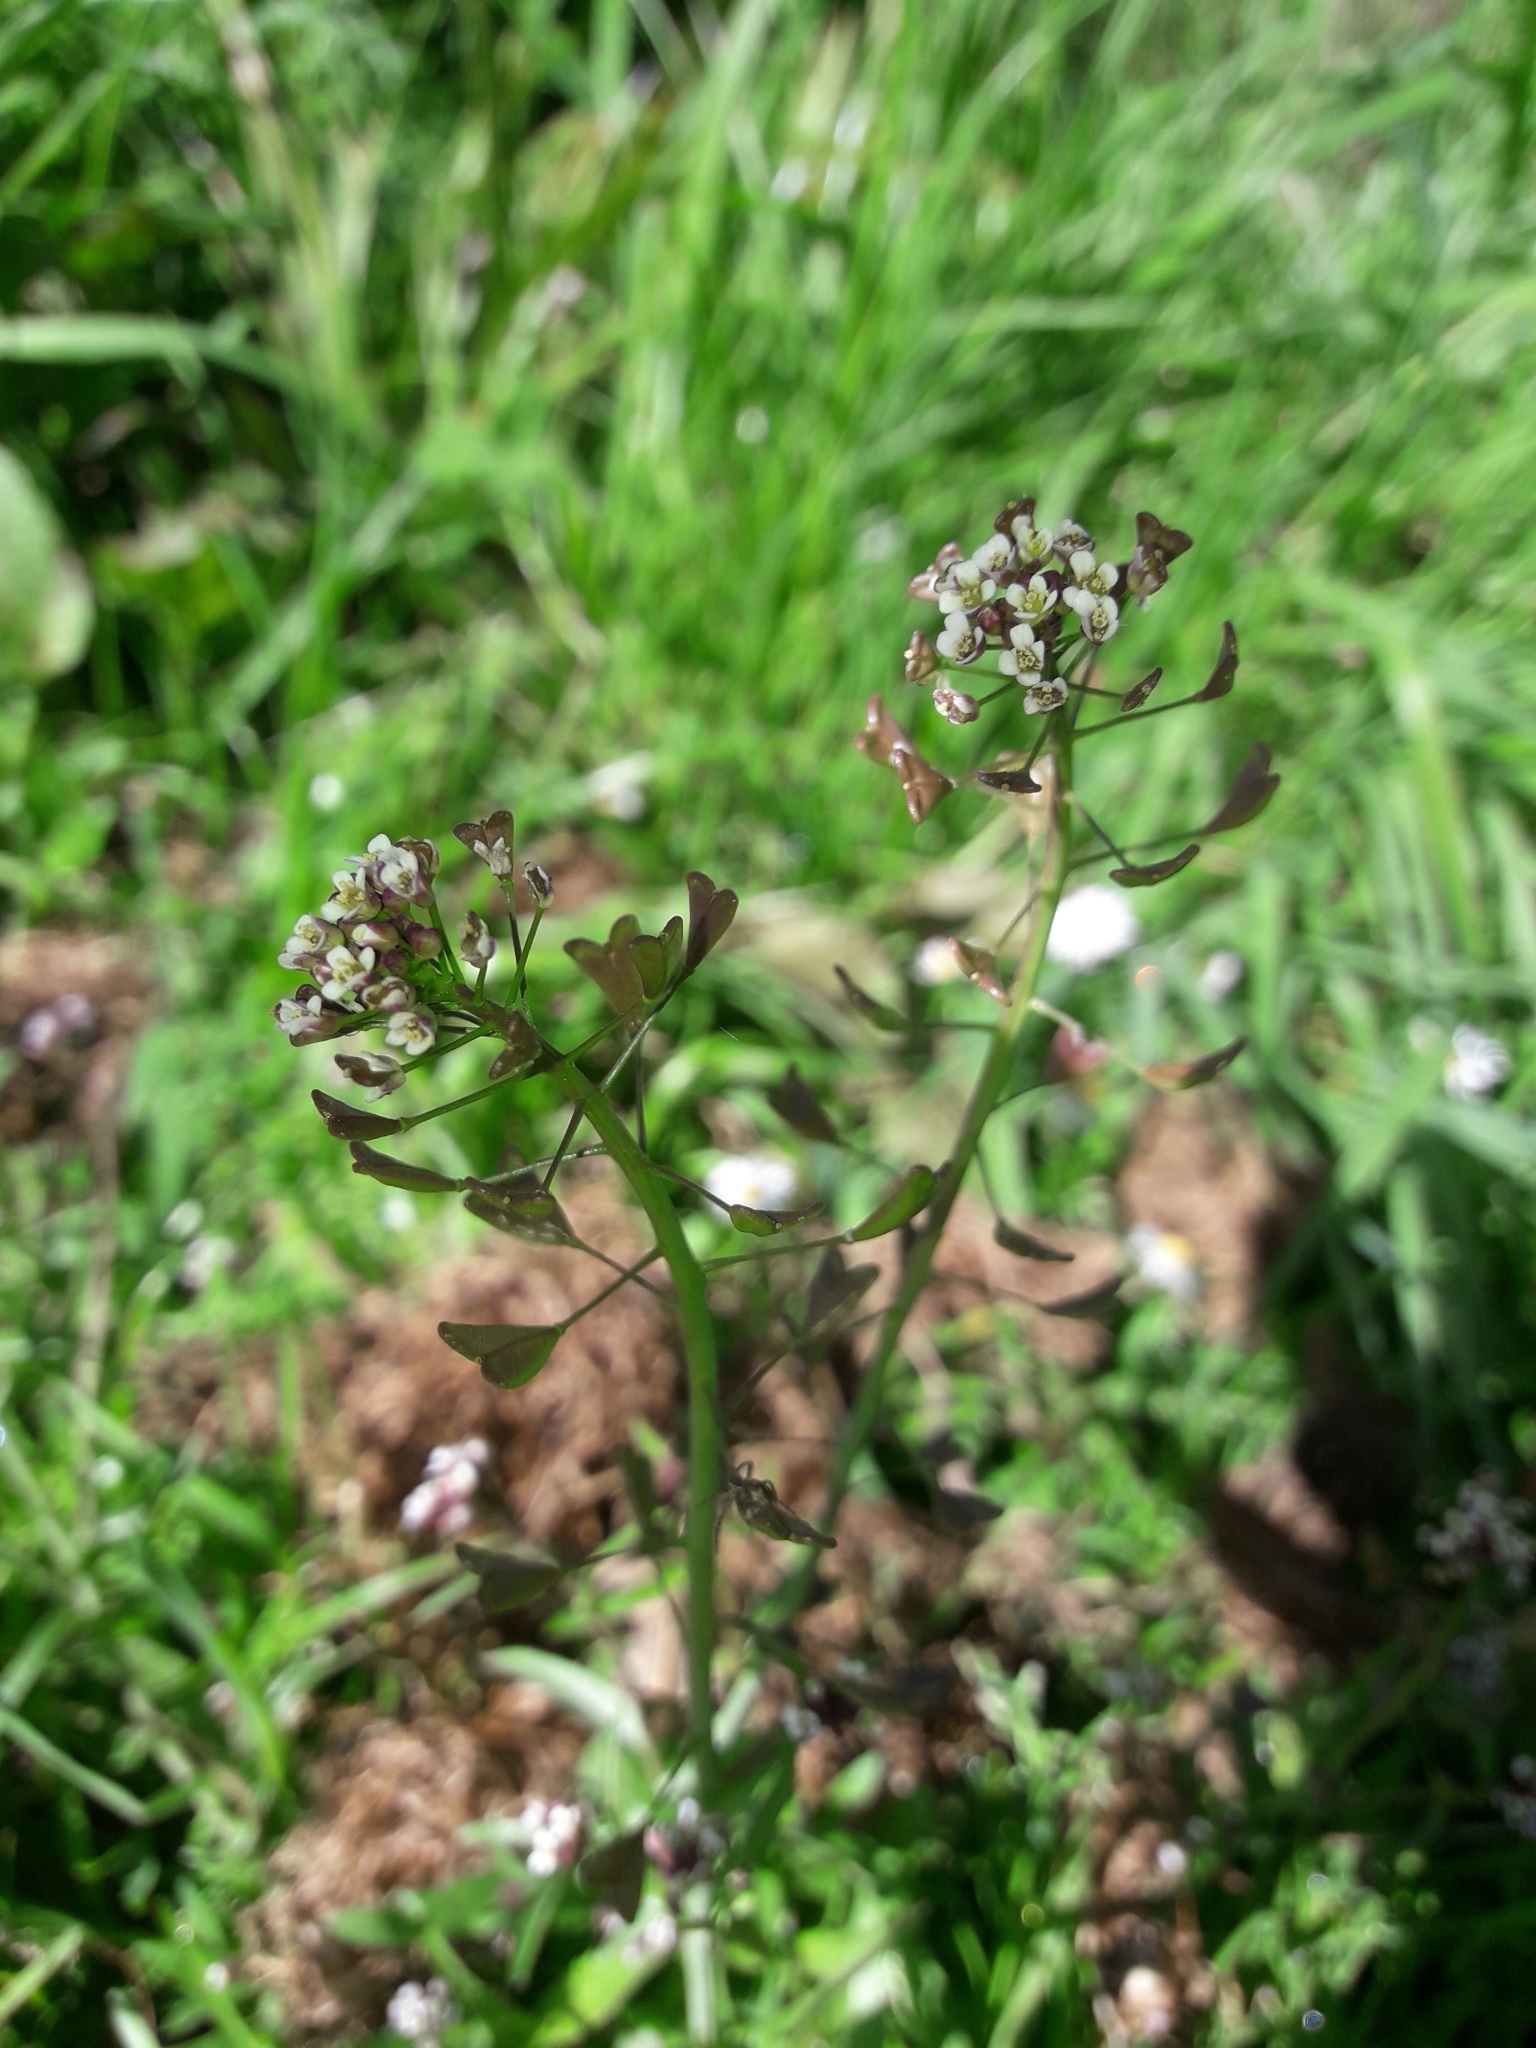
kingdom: Plantae
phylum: Tracheophyta
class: Magnoliopsida
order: Brassicales
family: Brassicaceae
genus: Capsella
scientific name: Capsella bursa-pastoris
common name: Shepherd's purse
